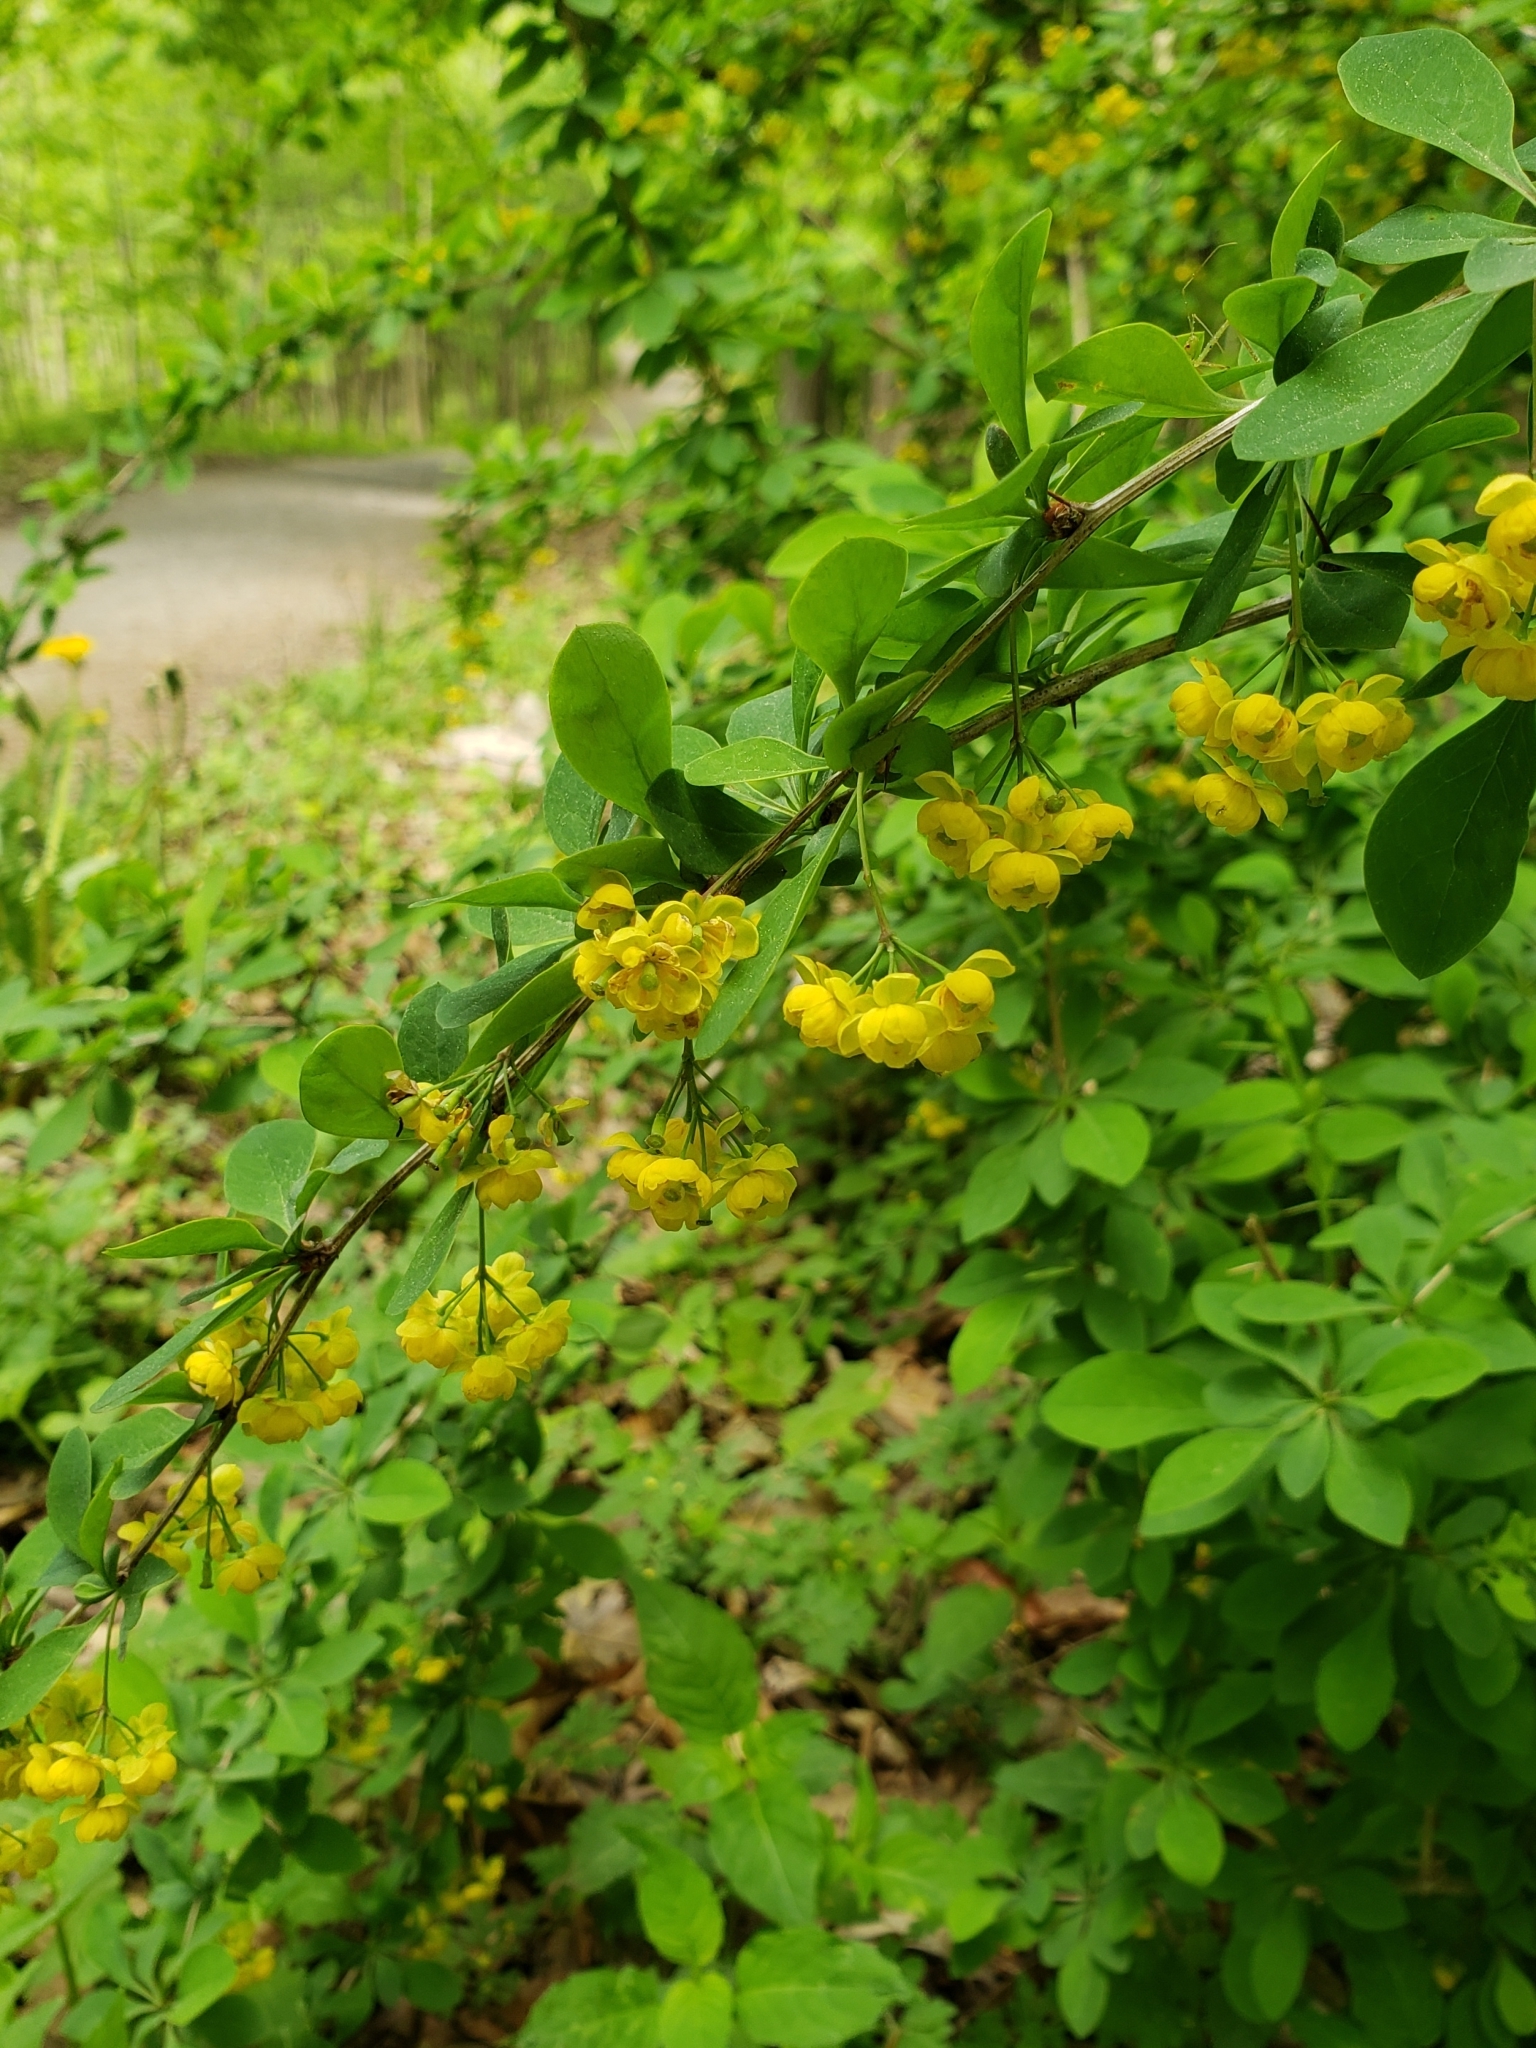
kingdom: Plantae
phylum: Tracheophyta
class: Magnoliopsida
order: Ranunculales
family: Berberidaceae
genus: Berberis
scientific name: Berberis thunbergii
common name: Japanese barberry
